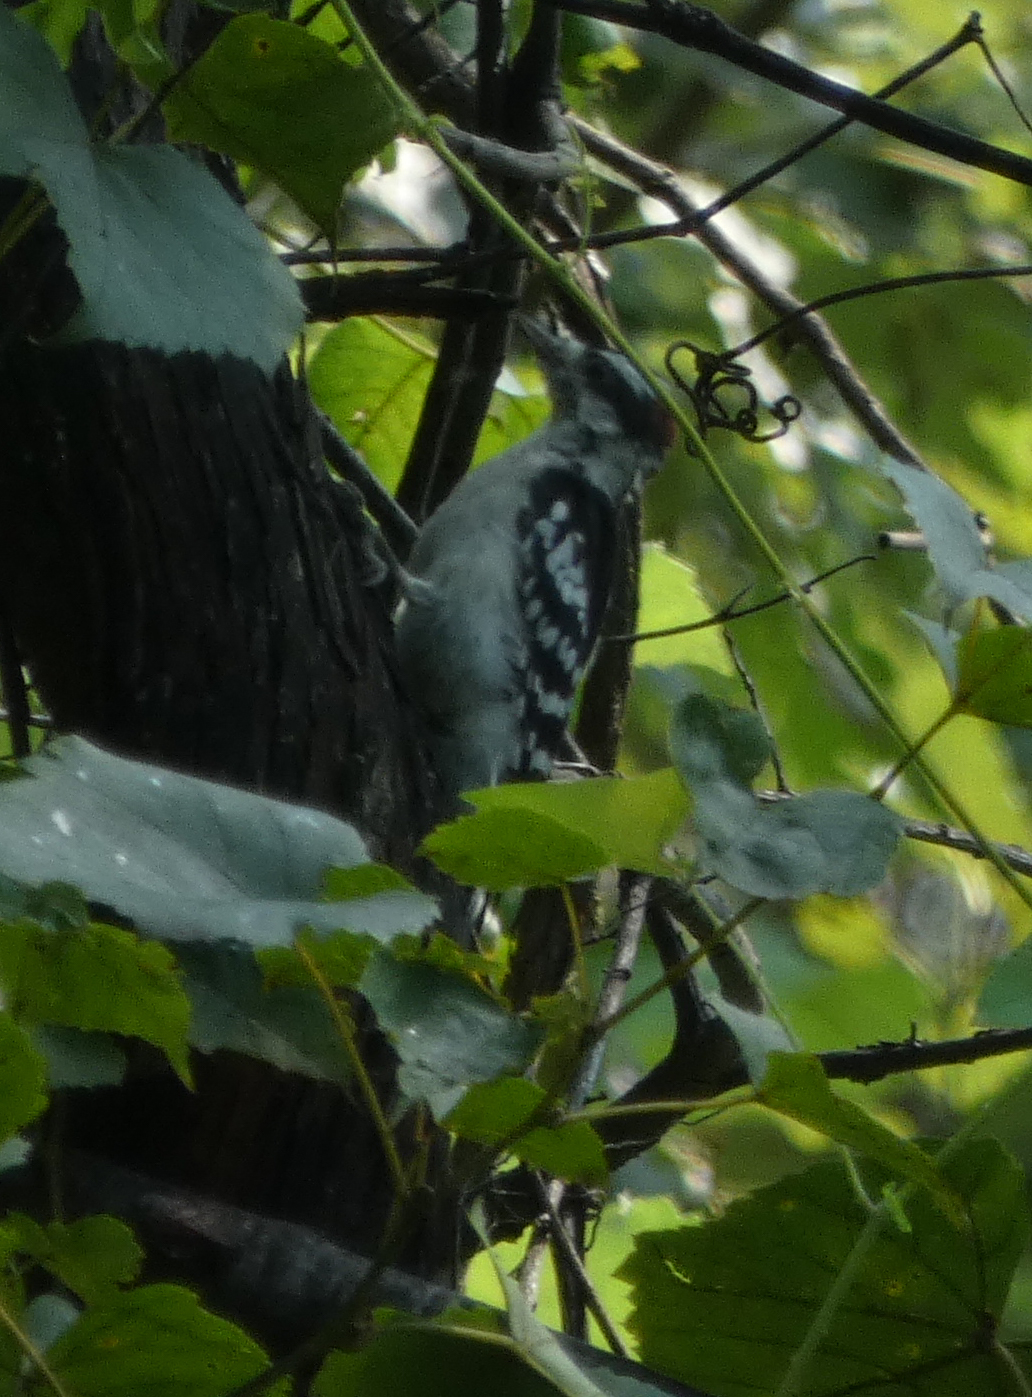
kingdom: Animalia
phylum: Chordata
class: Aves
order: Piciformes
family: Picidae
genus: Dryobates
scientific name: Dryobates pubescens
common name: Downy woodpecker
